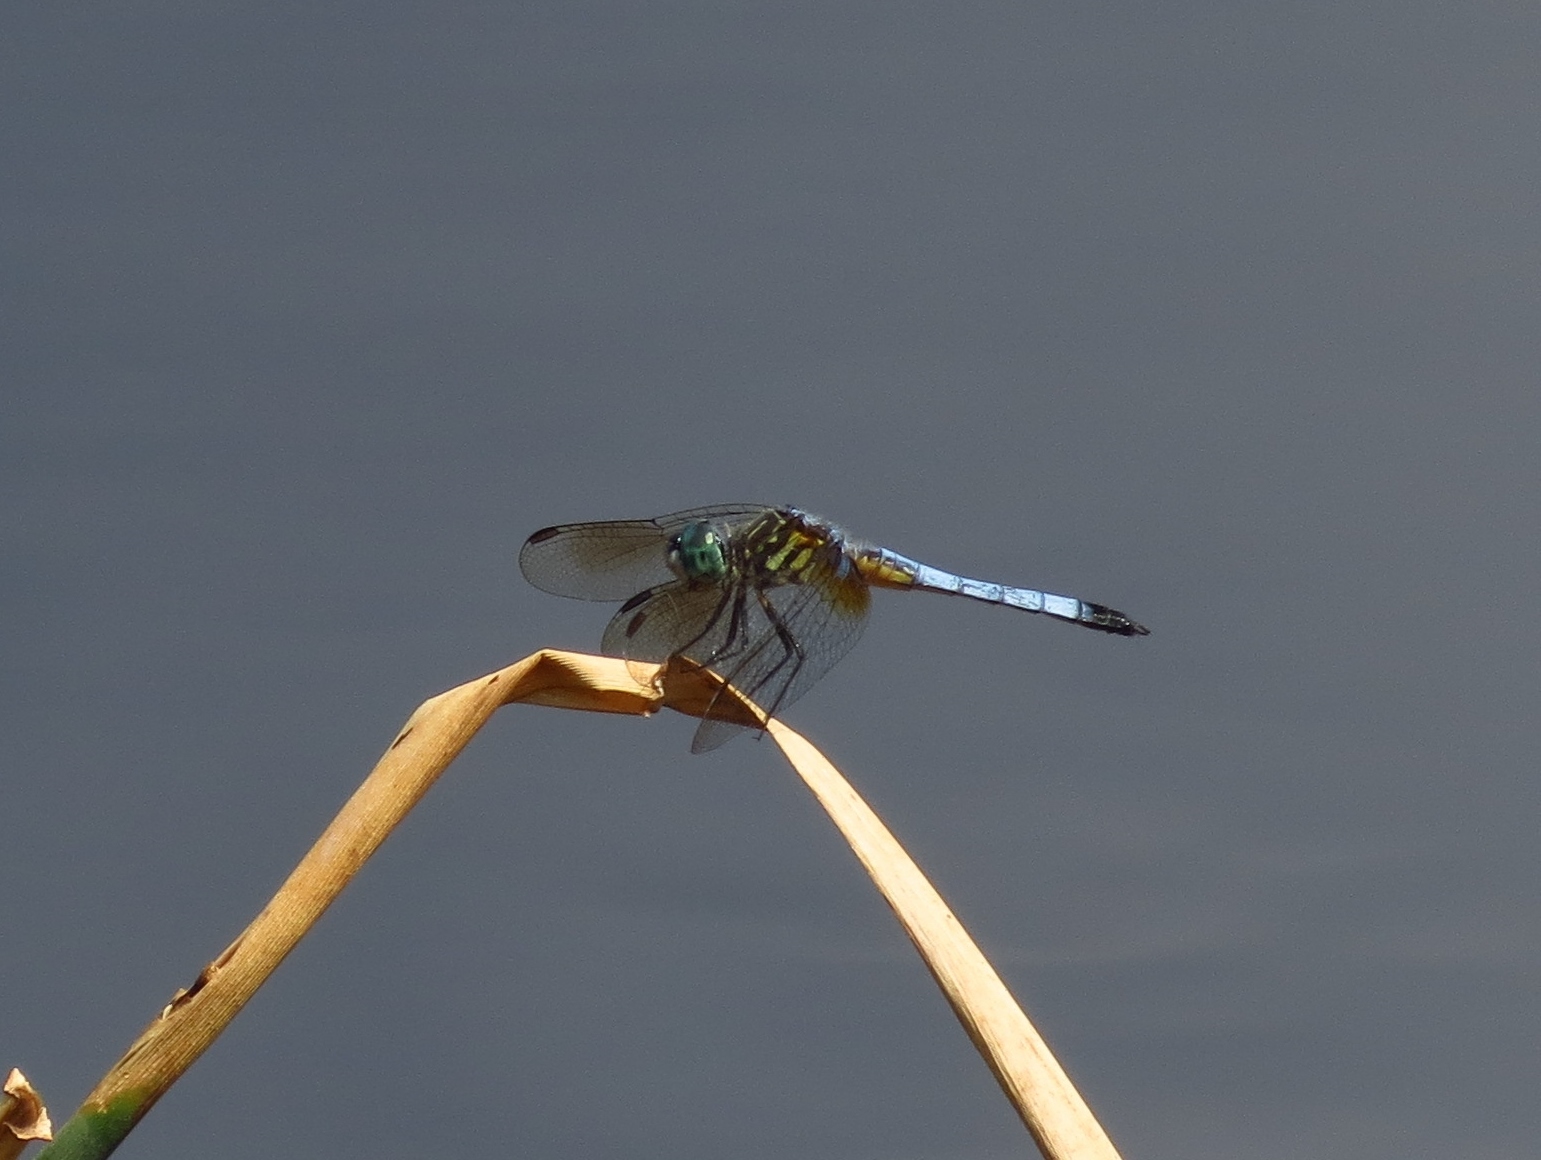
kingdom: Animalia
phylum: Arthropoda
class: Insecta
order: Odonata
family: Libellulidae
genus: Pachydiplax
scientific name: Pachydiplax longipennis
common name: Blue dasher
